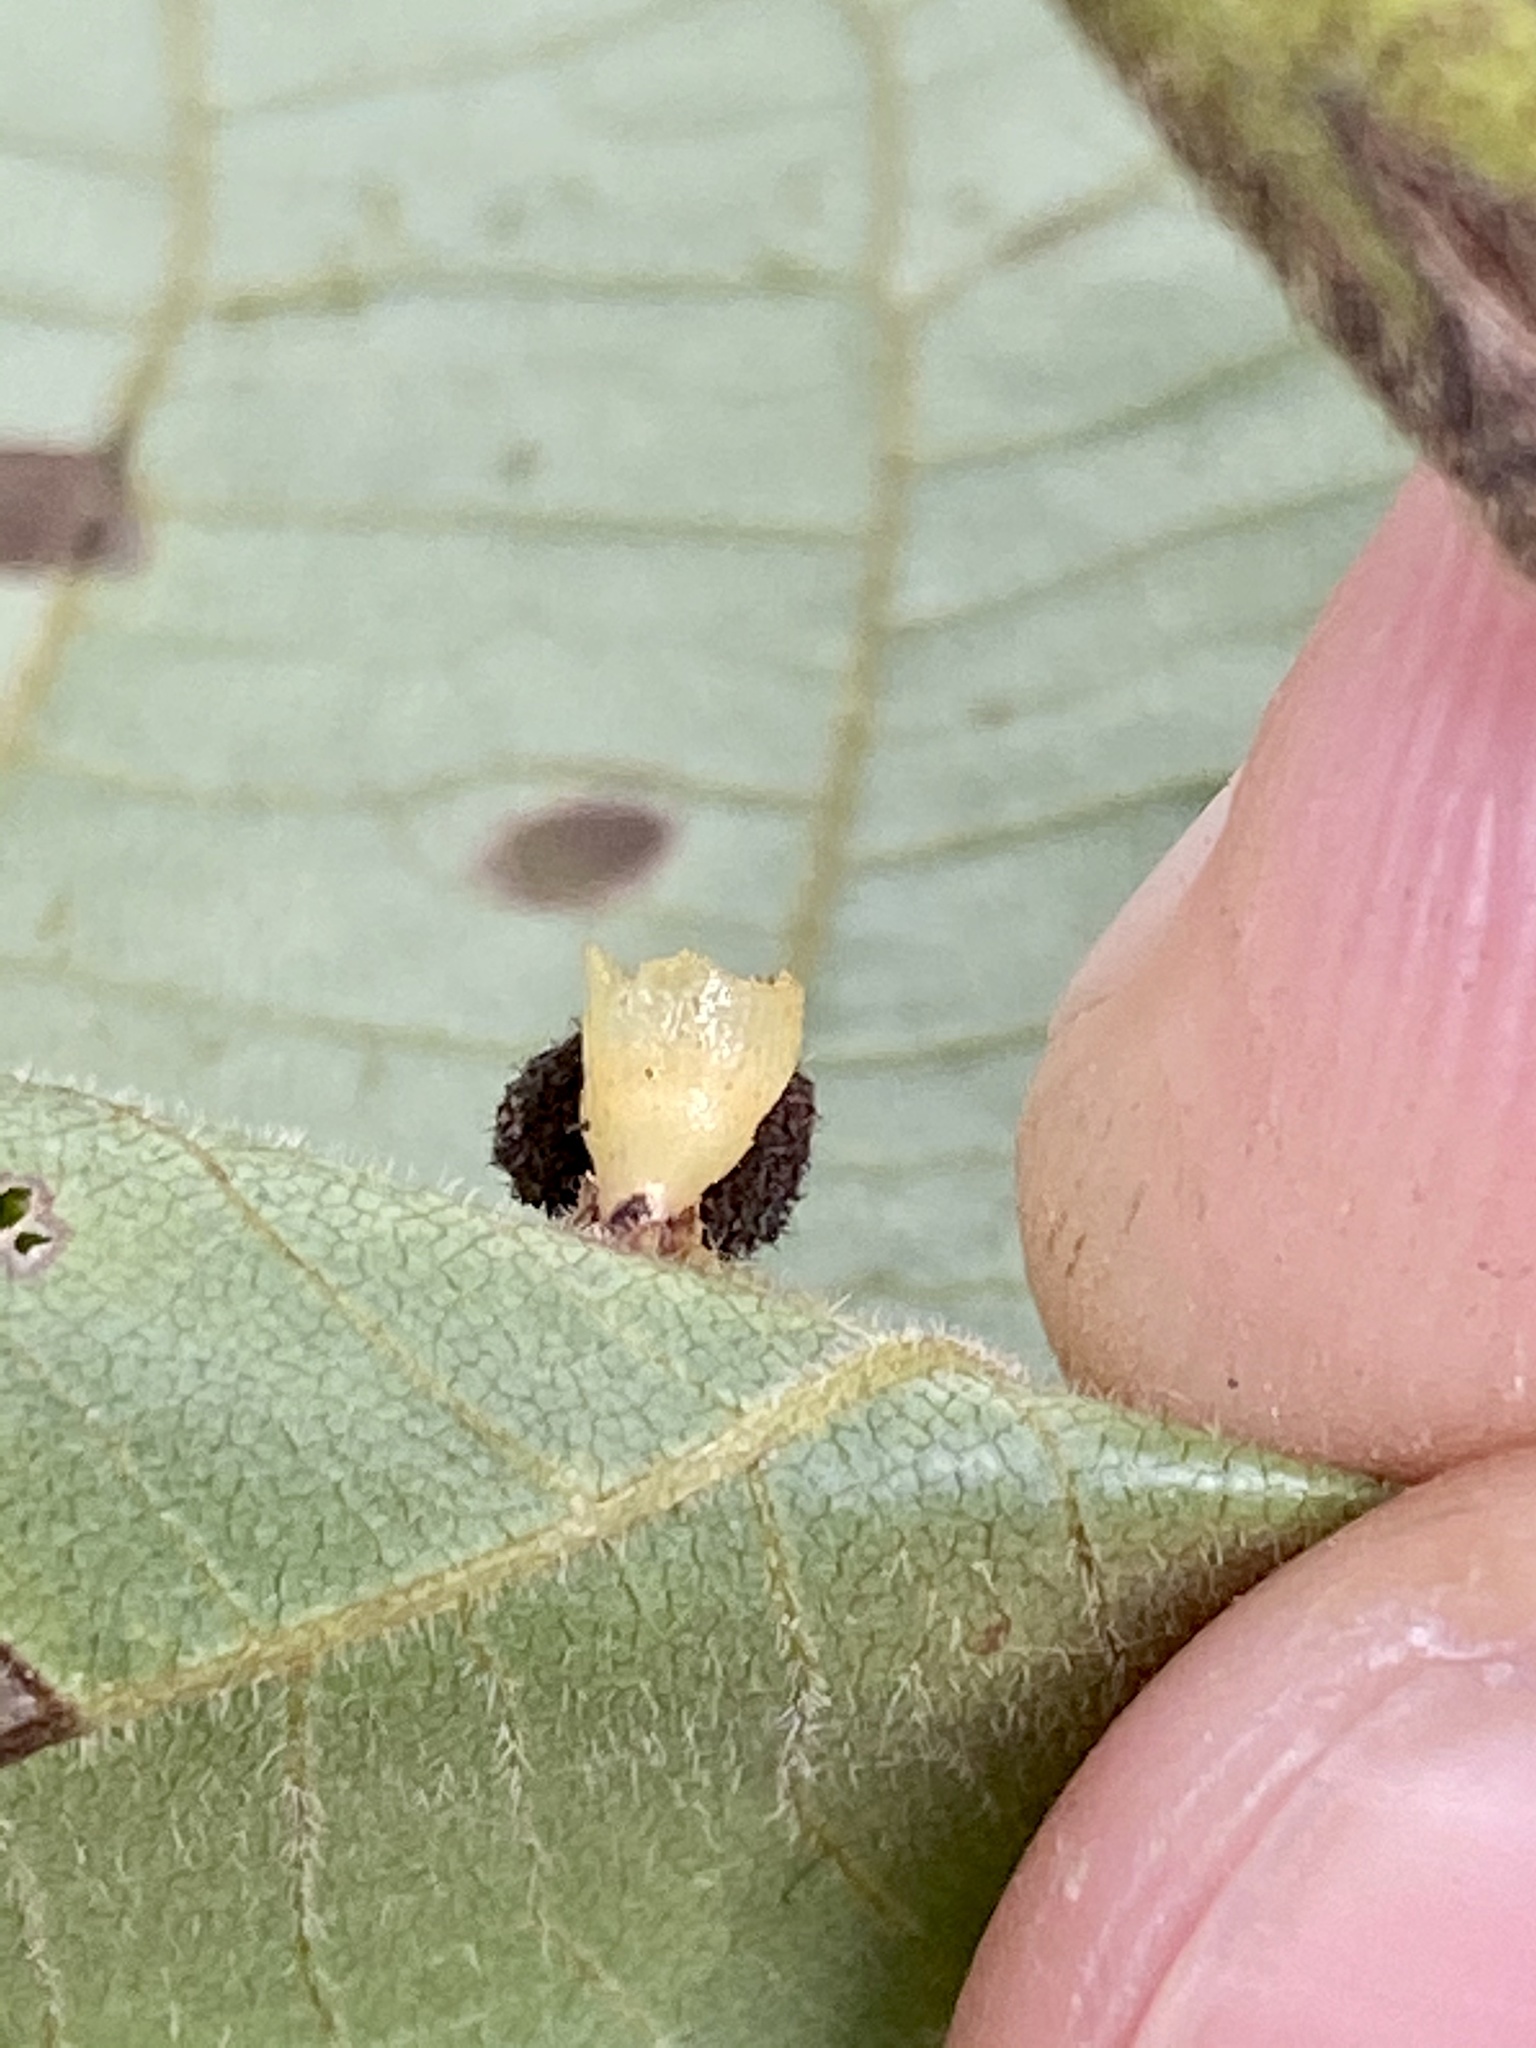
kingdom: Animalia
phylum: Arthropoda
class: Insecta
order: Diptera
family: Cecidomyiidae
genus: Caryomyia
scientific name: Caryomyia flaticrustum
